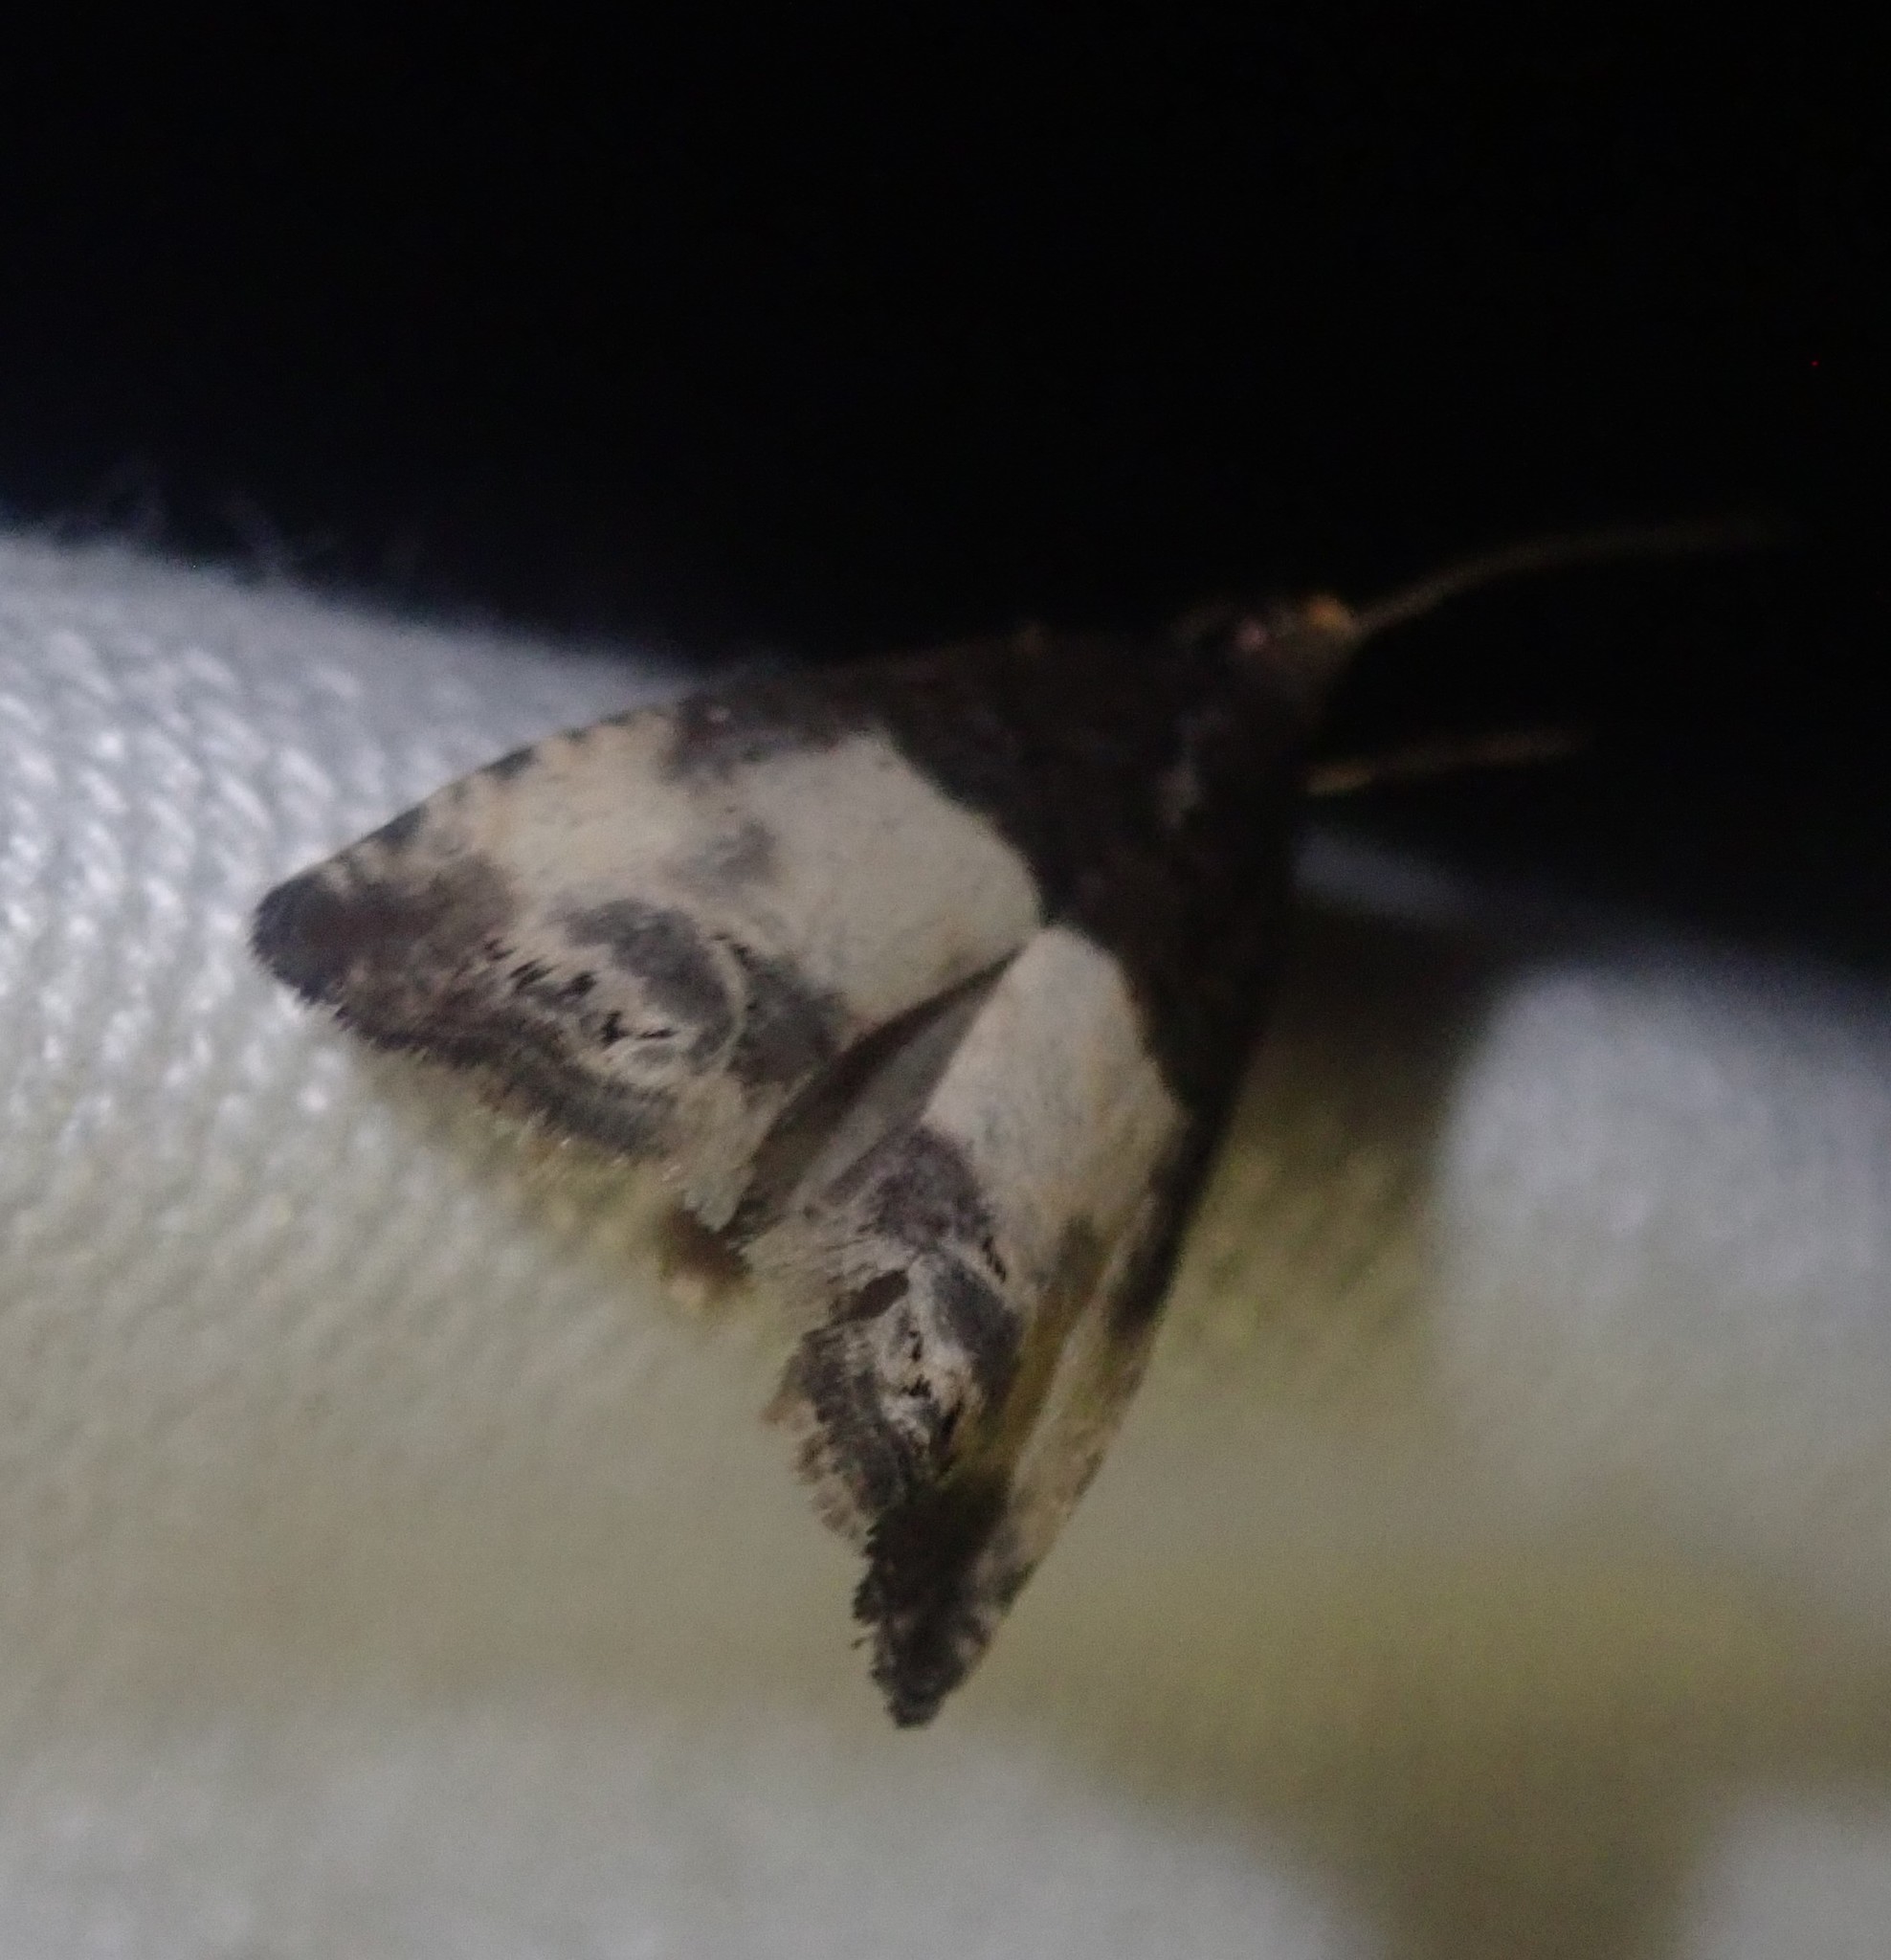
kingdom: Animalia
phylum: Arthropoda
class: Insecta
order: Lepidoptera
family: Tortricidae
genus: Notocelia
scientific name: Notocelia cynosbatella
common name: Yellow-faced bell moth
